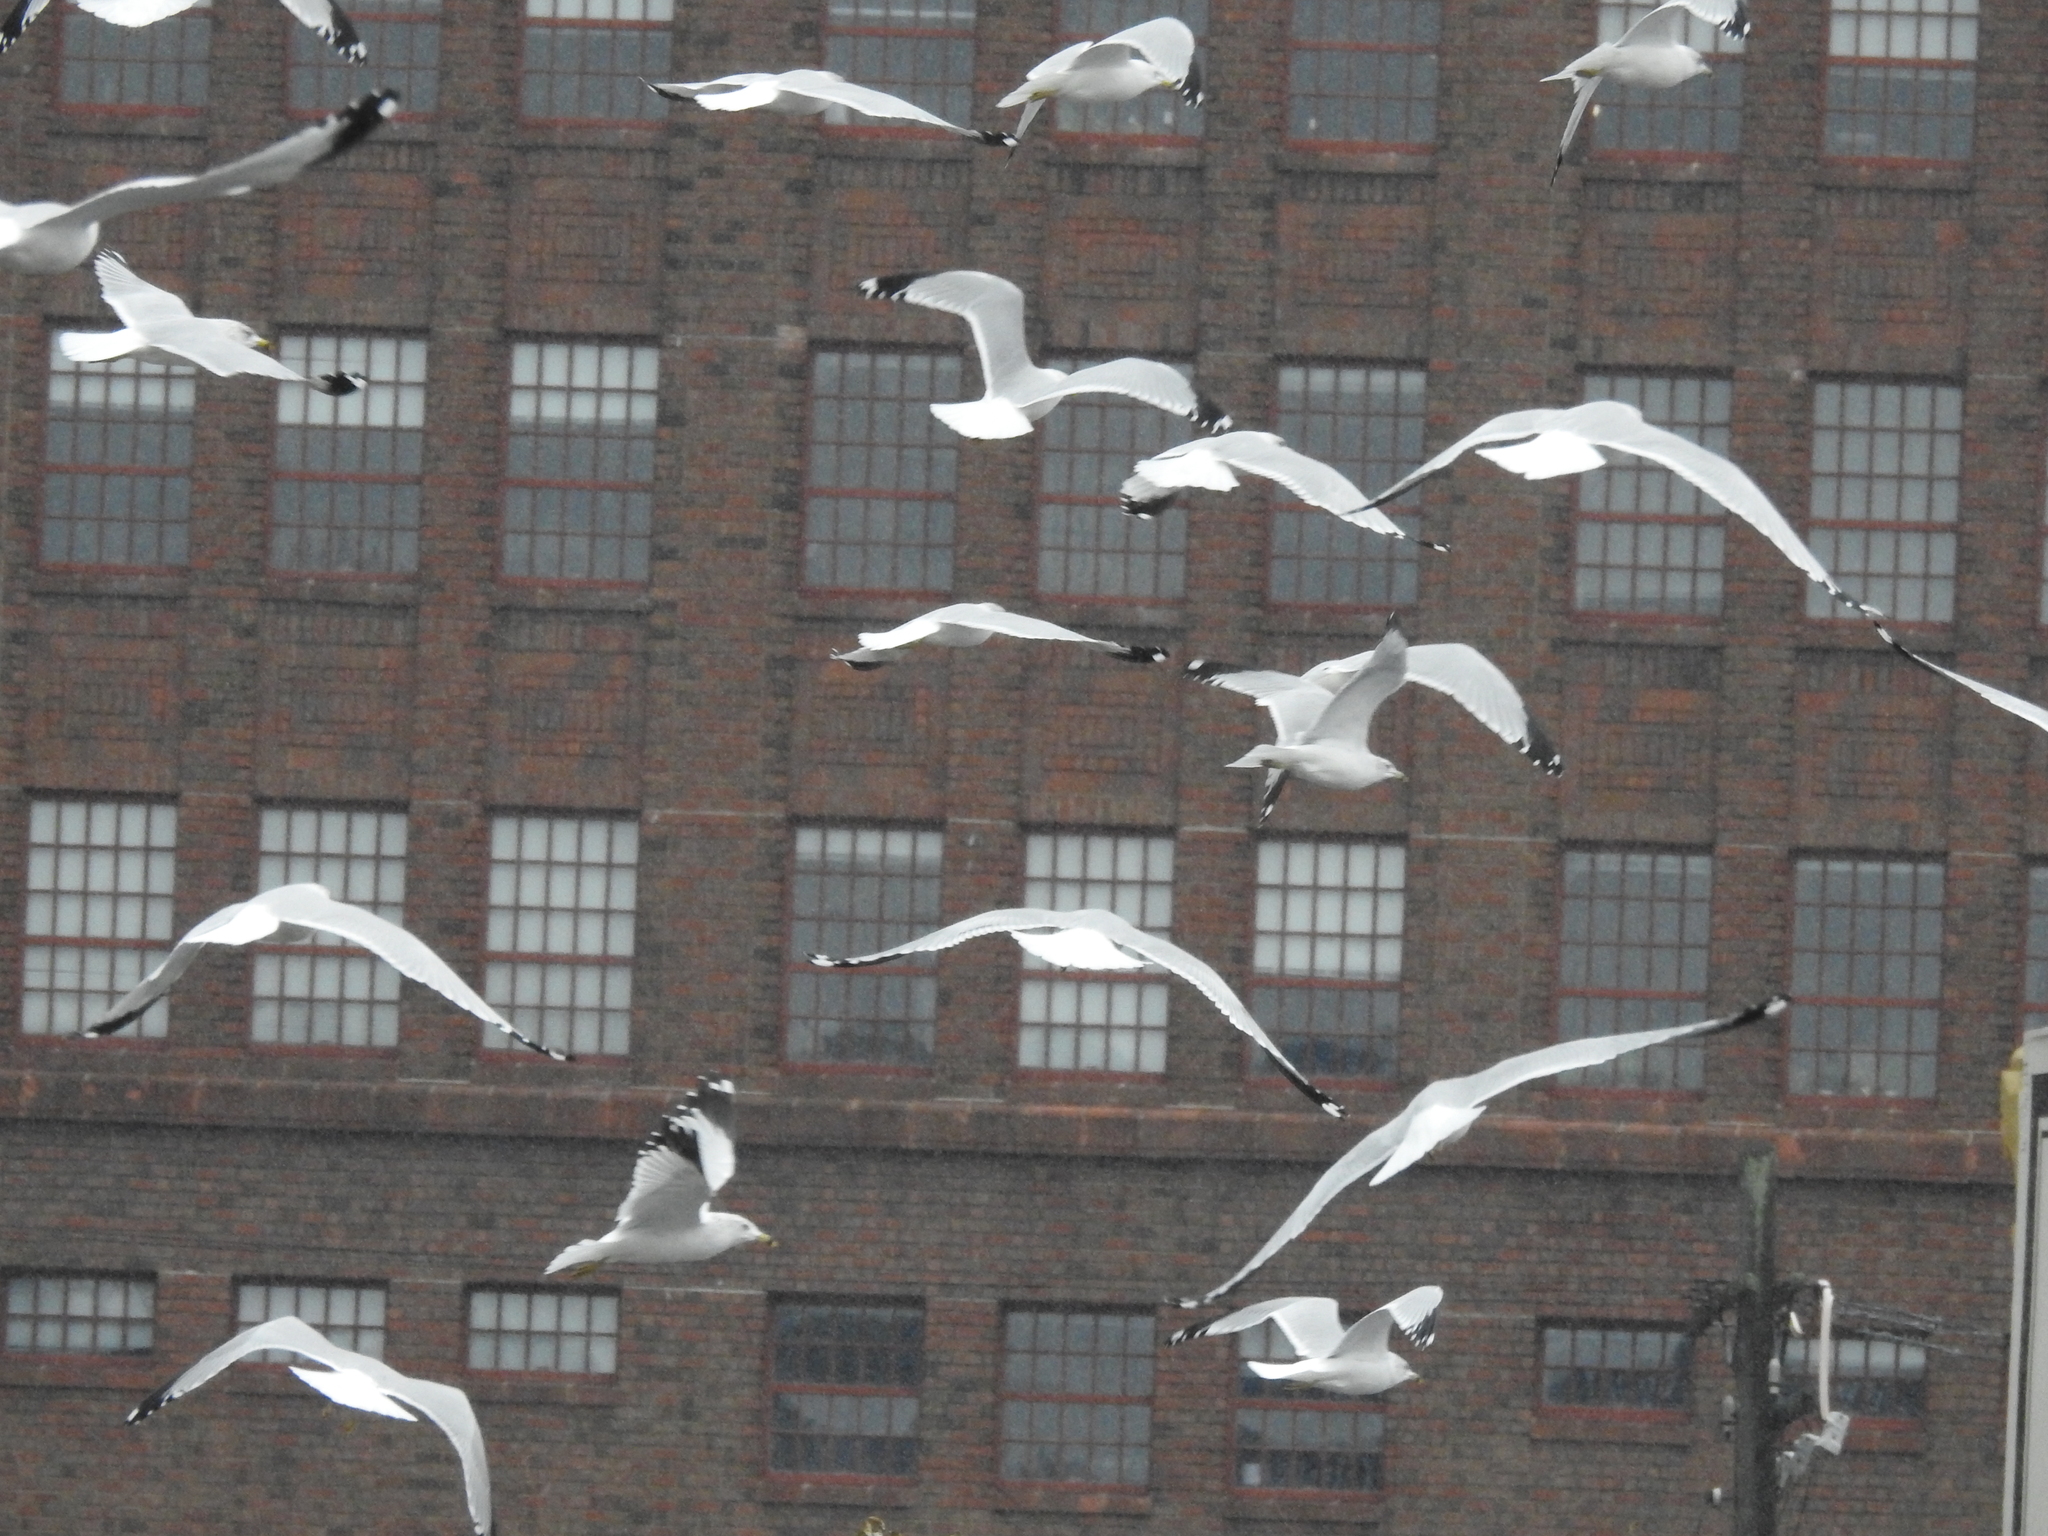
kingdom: Animalia
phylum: Chordata
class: Aves
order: Charadriiformes
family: Laridae
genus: Larus
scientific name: Larus delawarensis
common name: Ring-billed gull
